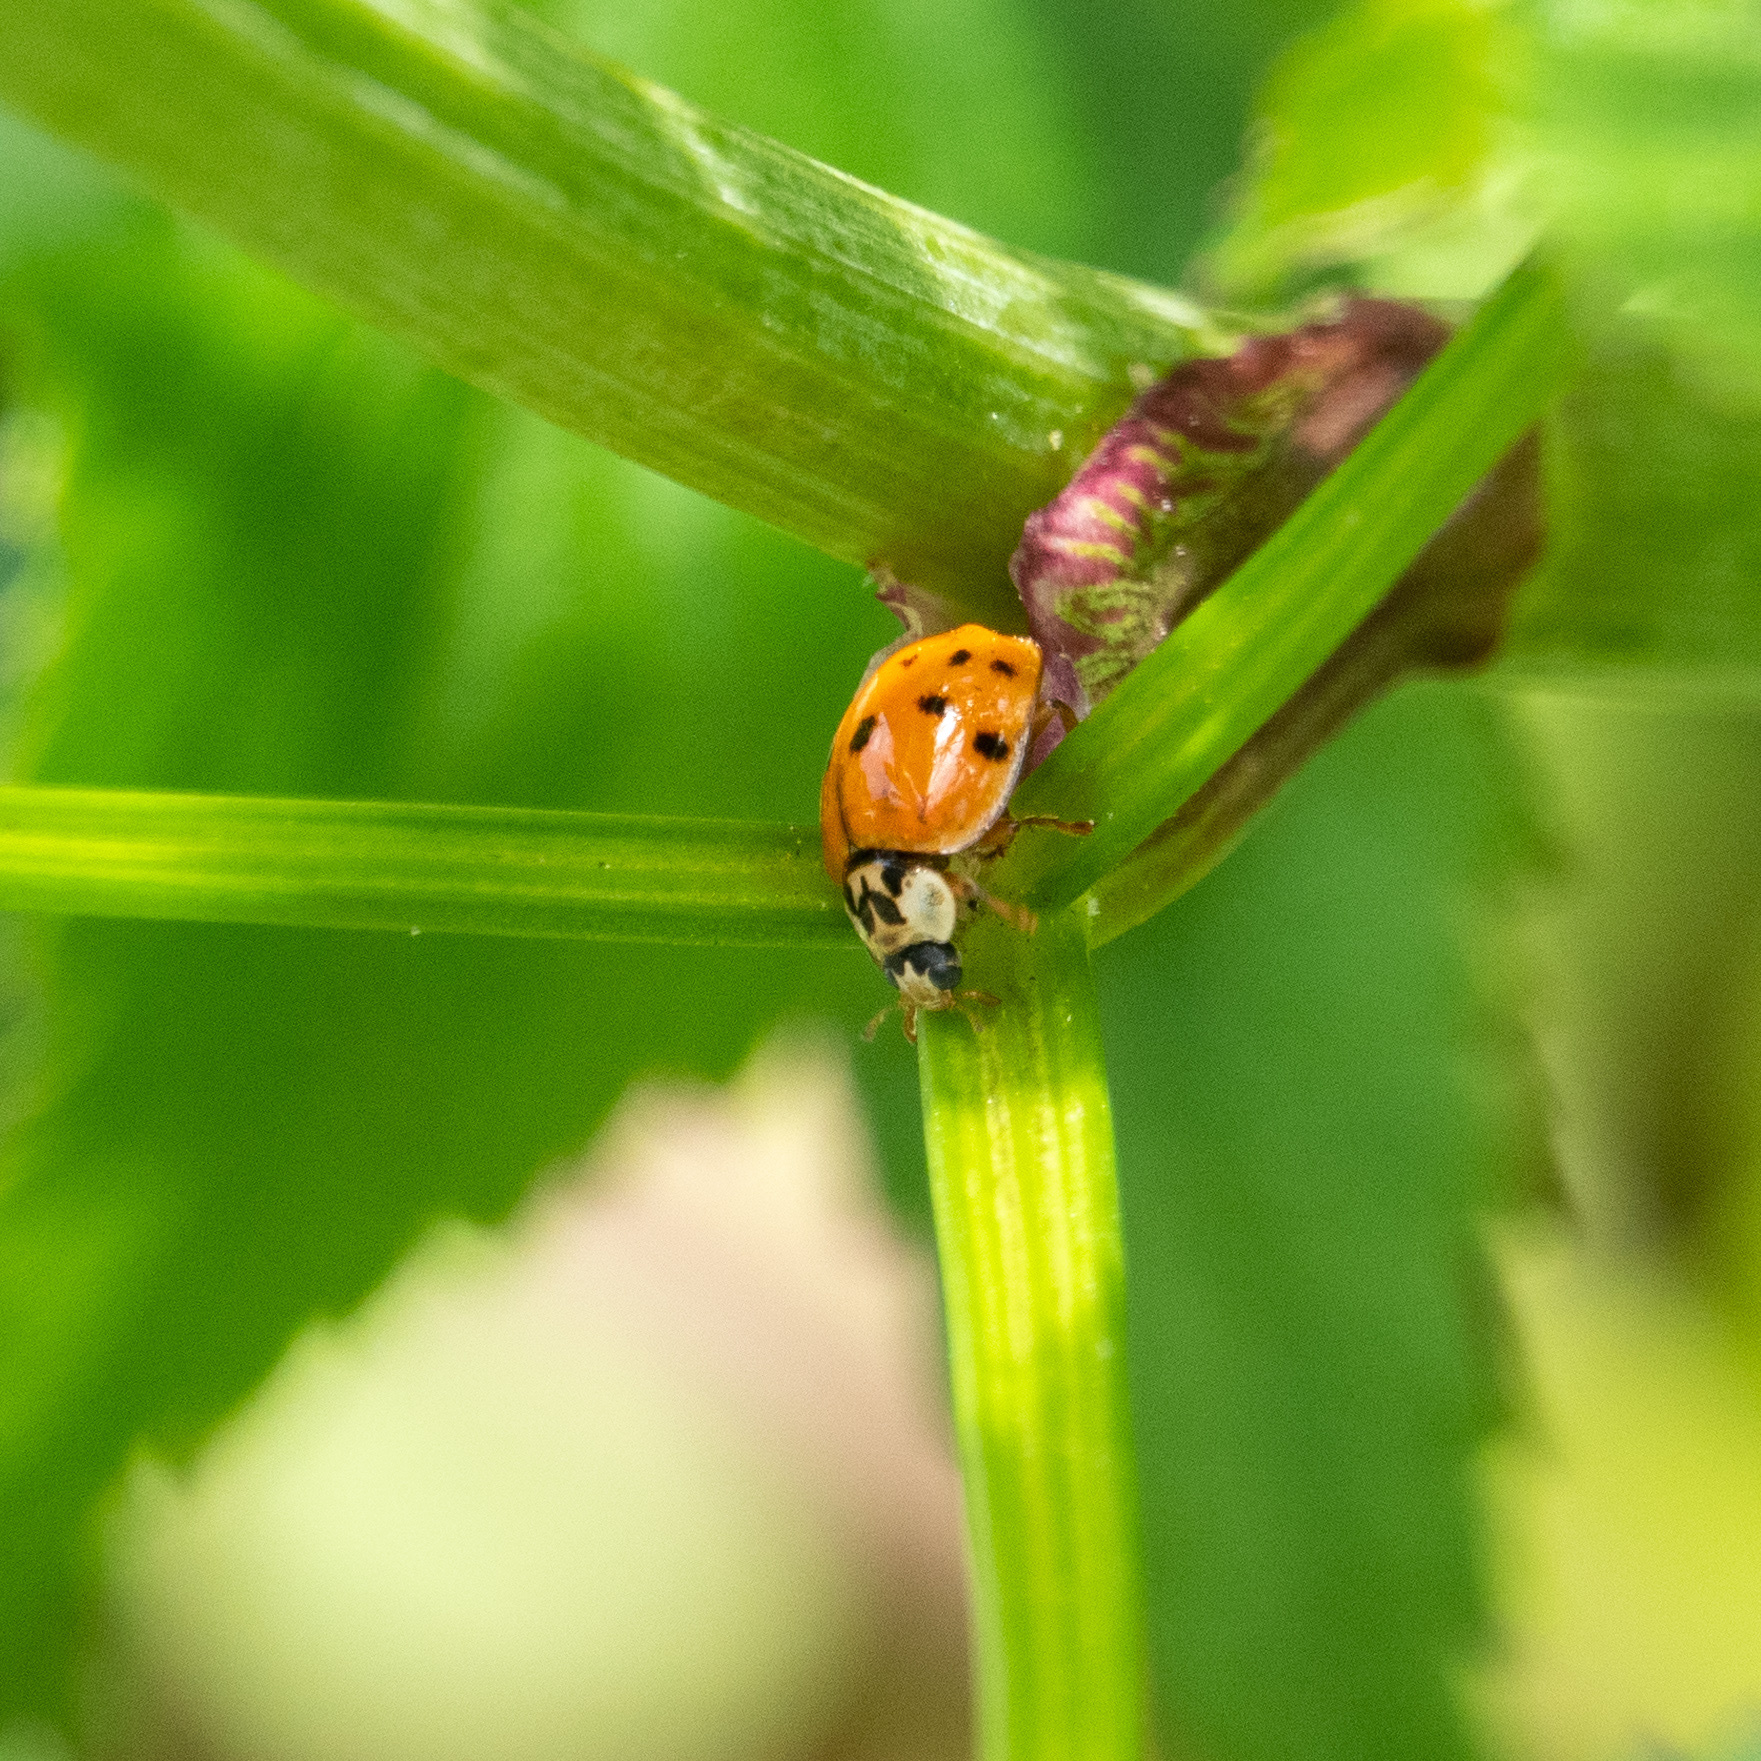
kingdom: Animalia
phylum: Arthropoda
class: Insecta
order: Coleoptera
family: Coccinellidae
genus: Harmonia
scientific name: Harmonia axyridis
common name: Harlequin ladybird
